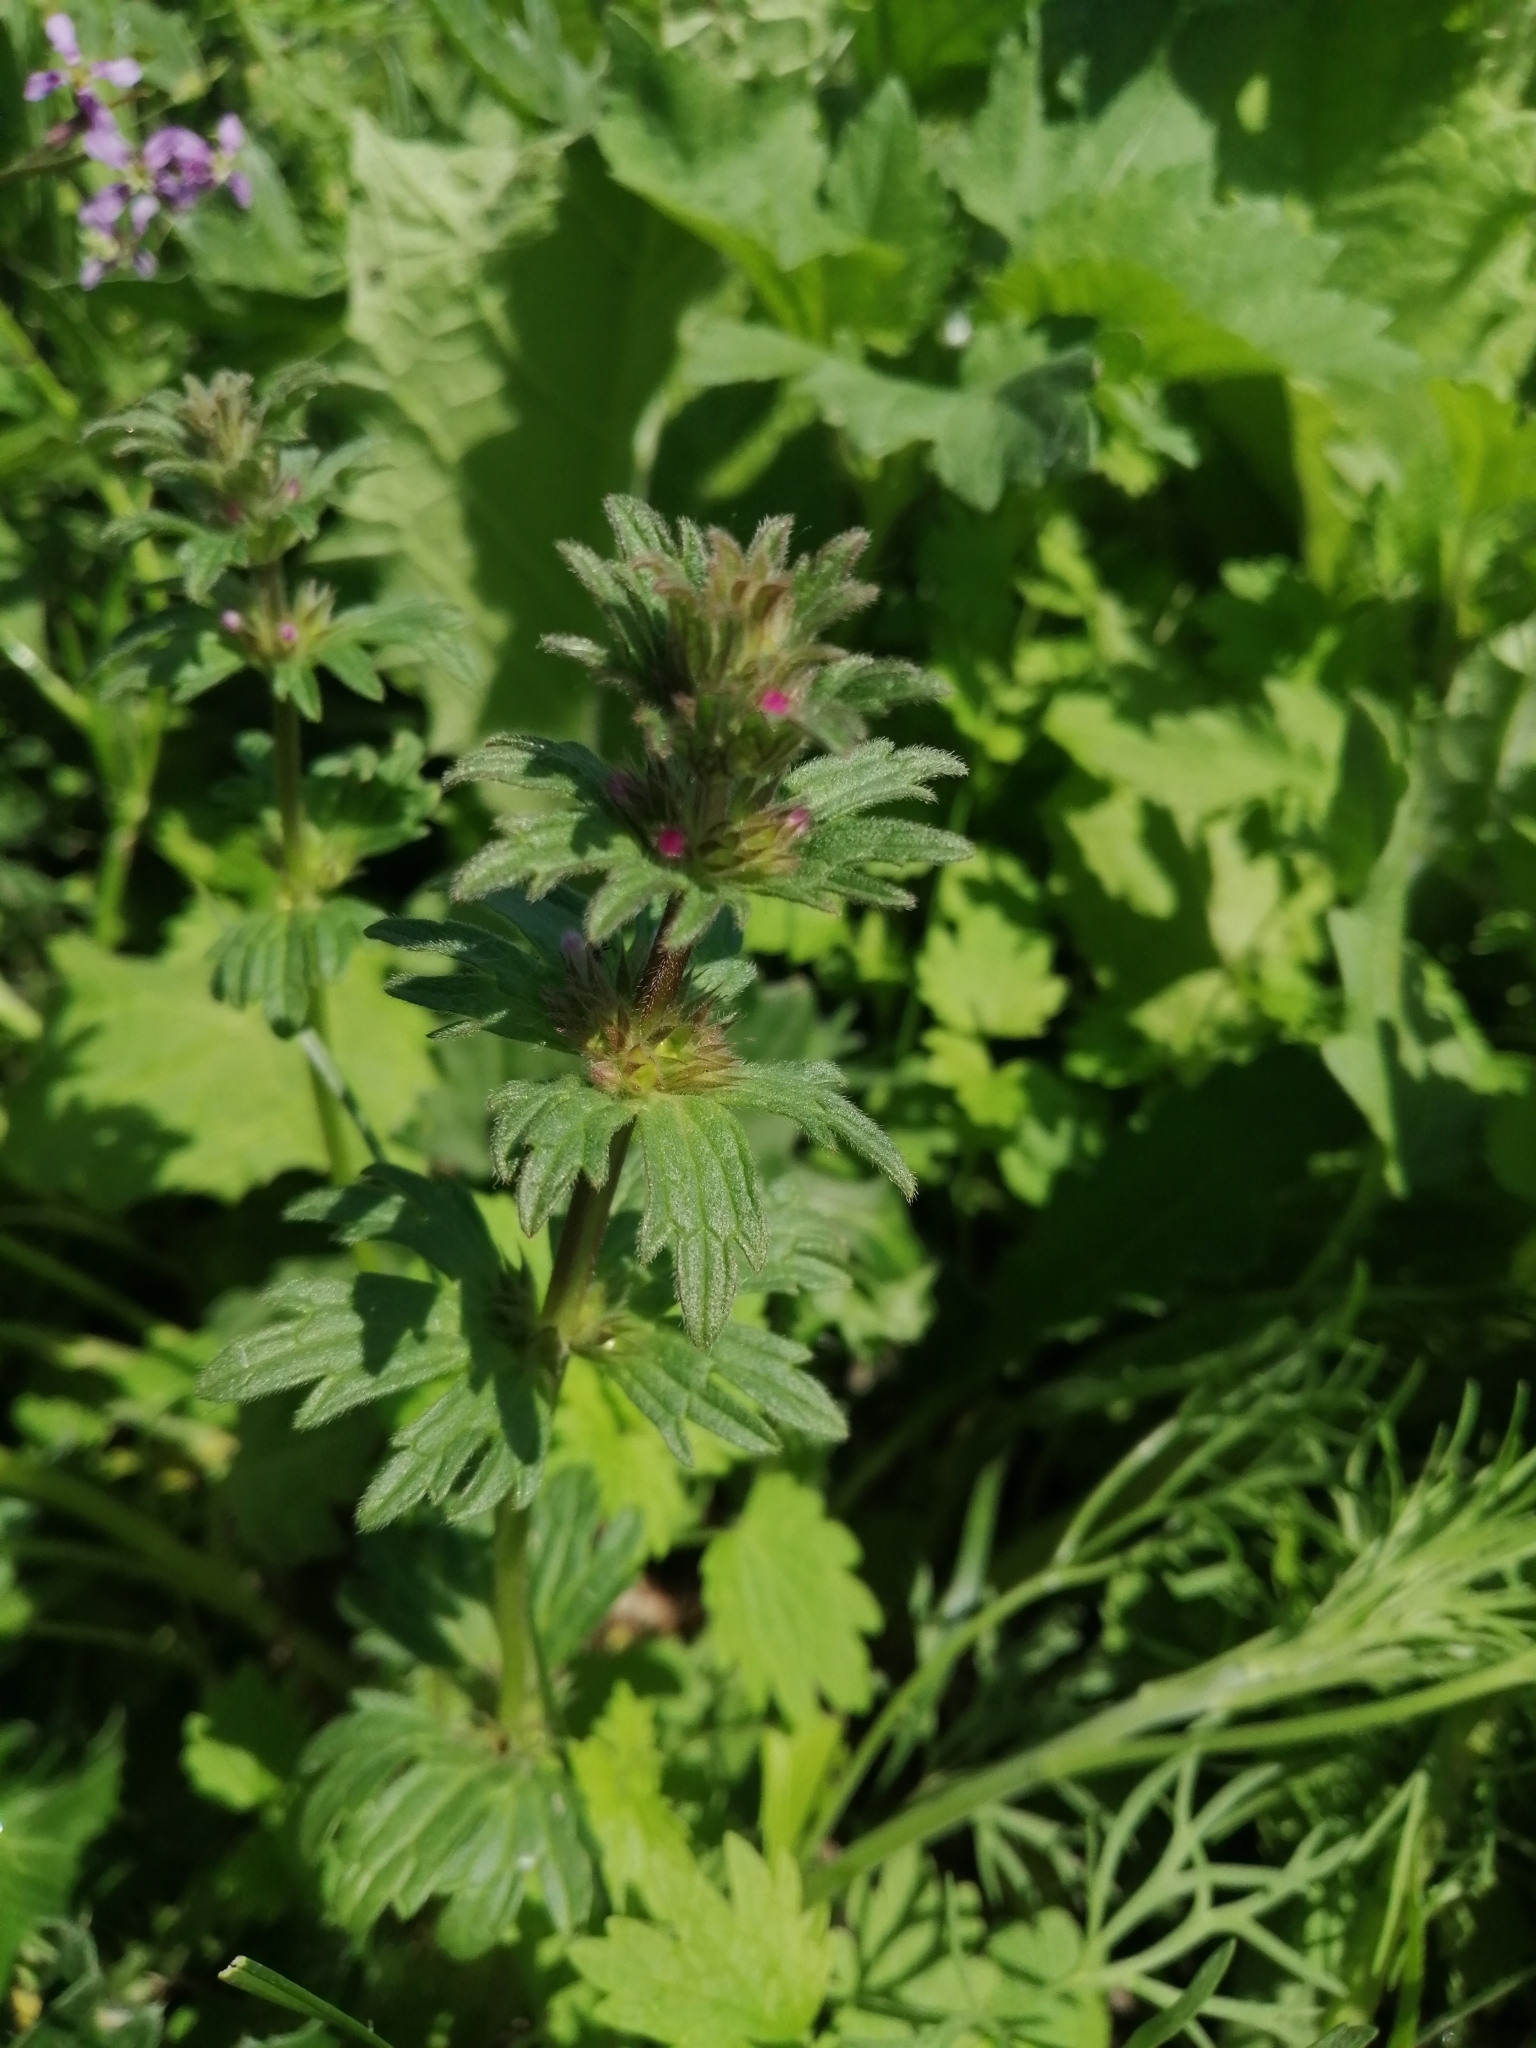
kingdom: Plantae
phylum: Tracheophyta
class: Magnoliopsida
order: Lamiales
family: Lamiaceae
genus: Lamium
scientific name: Lamium amplexicaule
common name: Henbit dead-nettle
